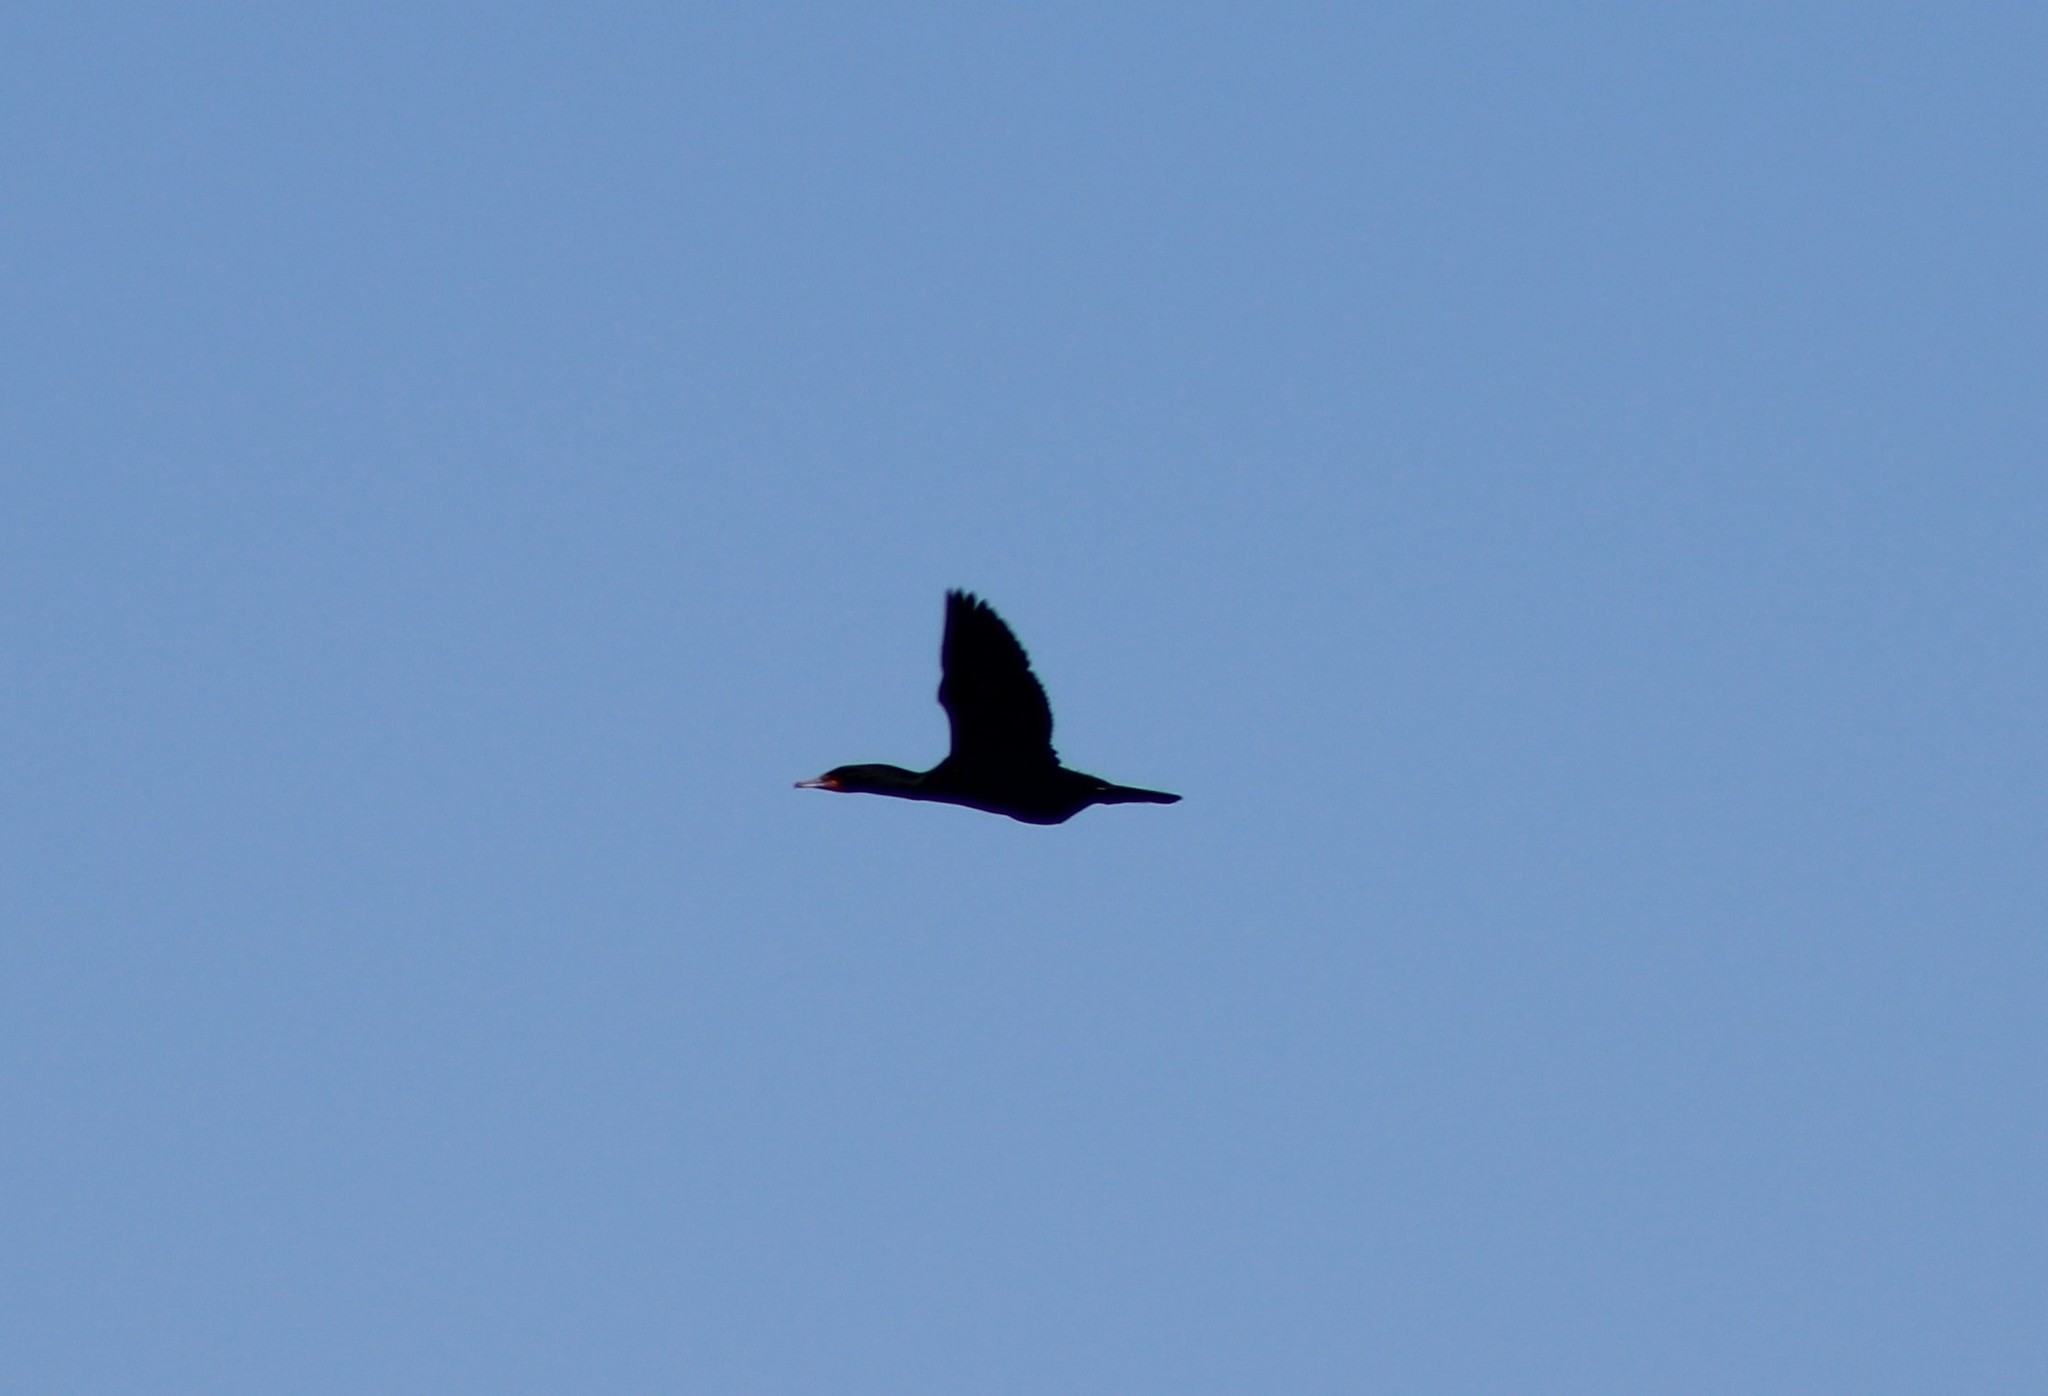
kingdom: Animalia
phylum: Chordata
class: Aves
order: Suliformes
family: Phalacrocoracidae
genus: Phalacrocorax
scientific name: Phalacrocorax auritus
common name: Double-crested cormorant
